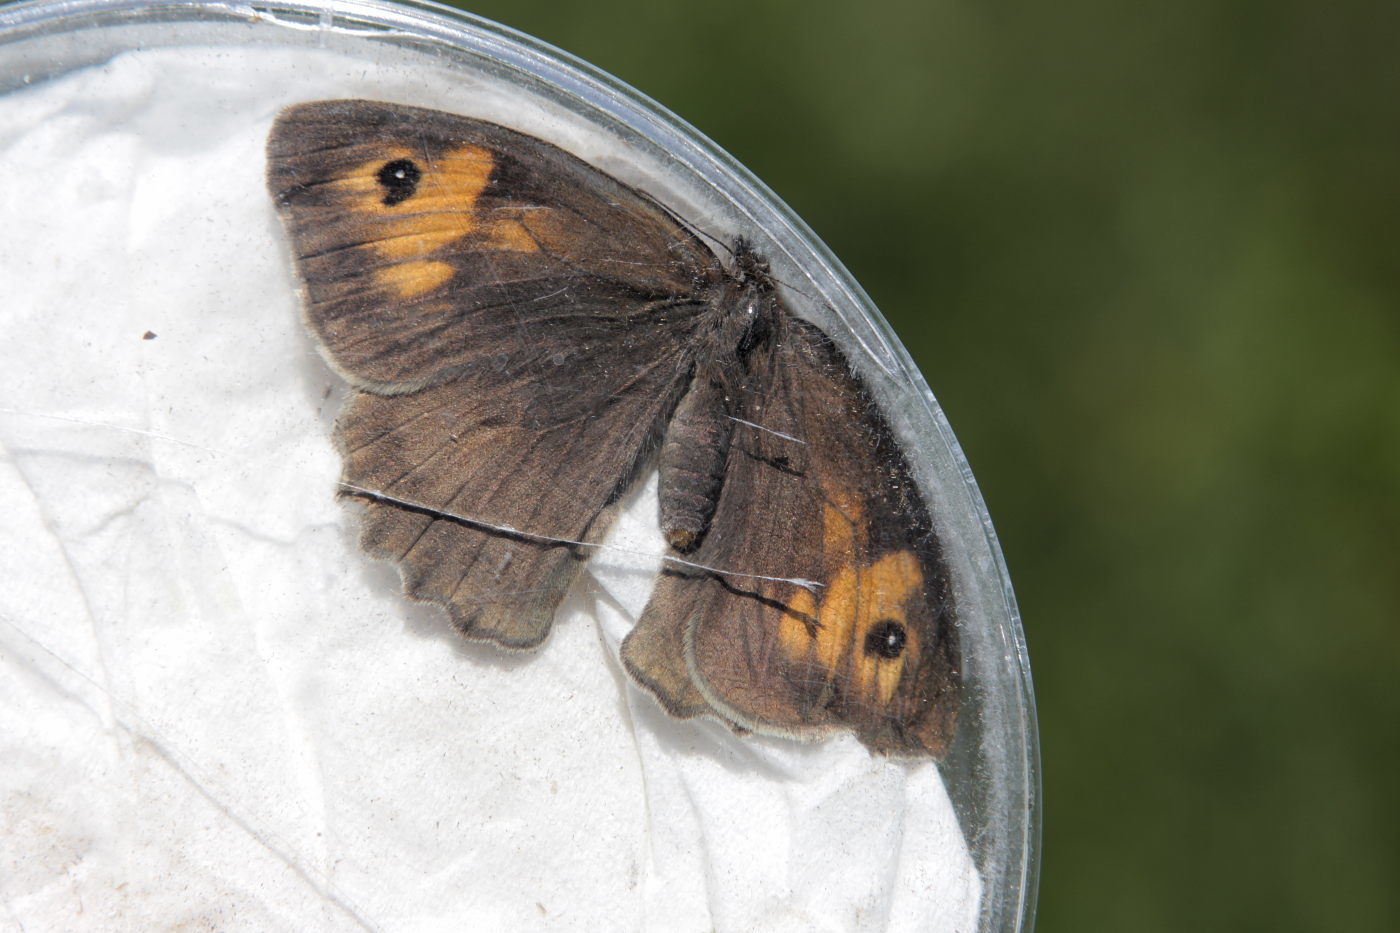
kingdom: Animalia
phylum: Arthropoda
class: Insecta
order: Lepidoptera
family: Nymphalidae
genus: Maniola
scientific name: Maniola jurtina
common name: Meadow brown
